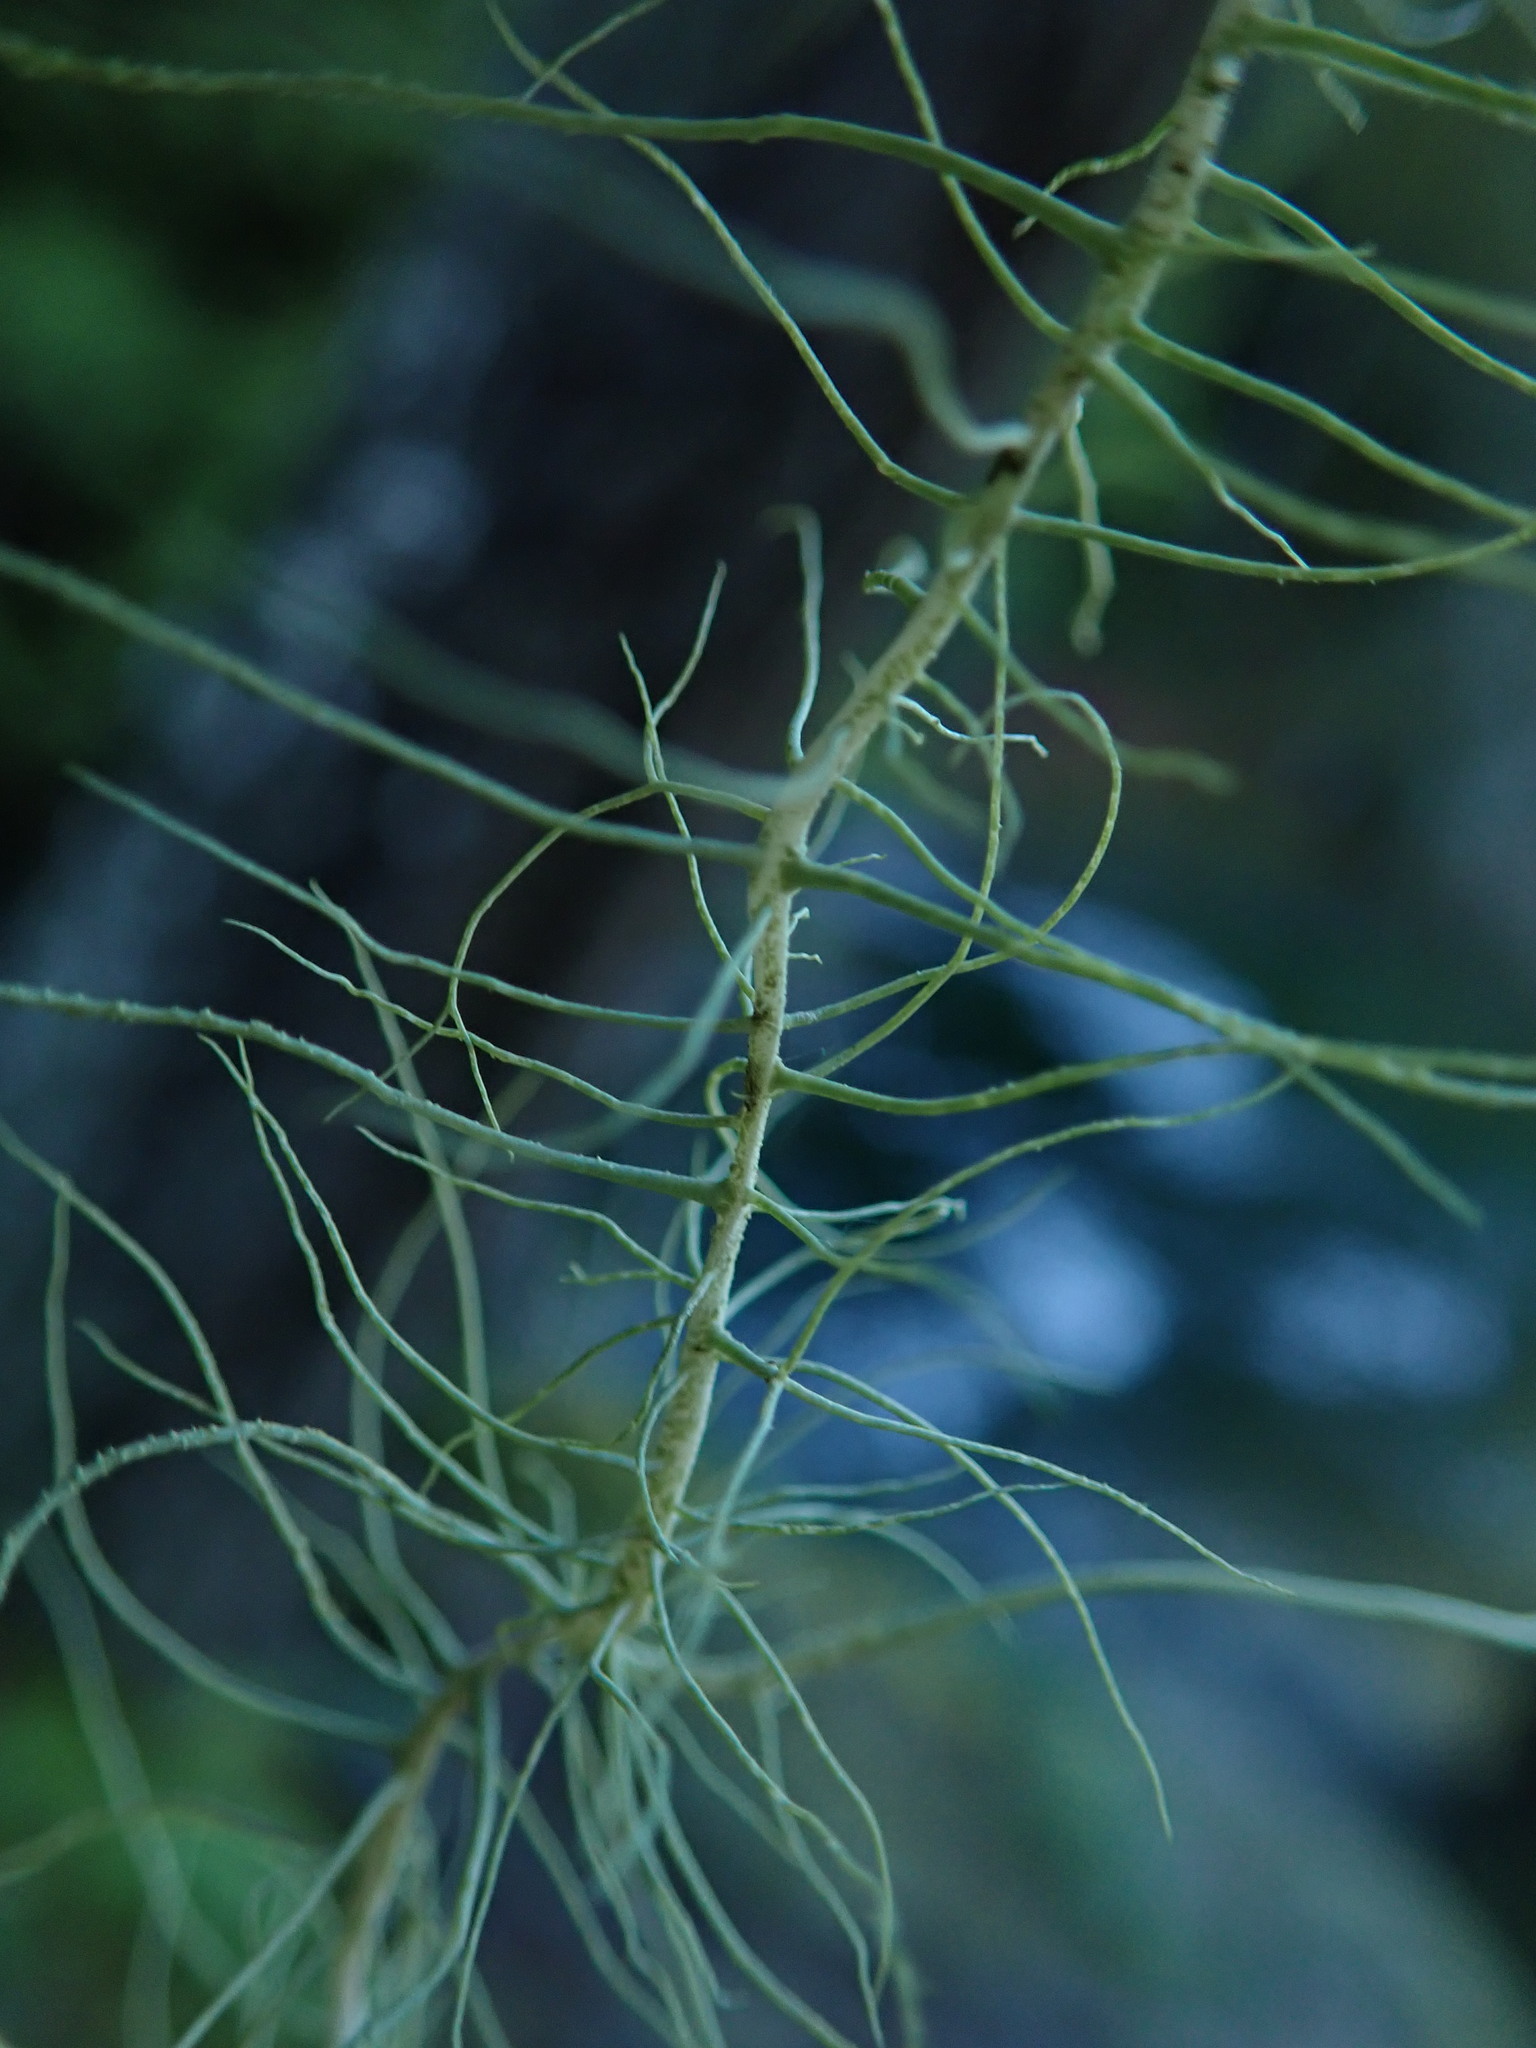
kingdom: Fungi
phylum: Ascomycota
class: Lecanoromycetes
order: Lecanorales
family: Parmeliaceae
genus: Dolichousnea
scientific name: Dolichousnea longissima
